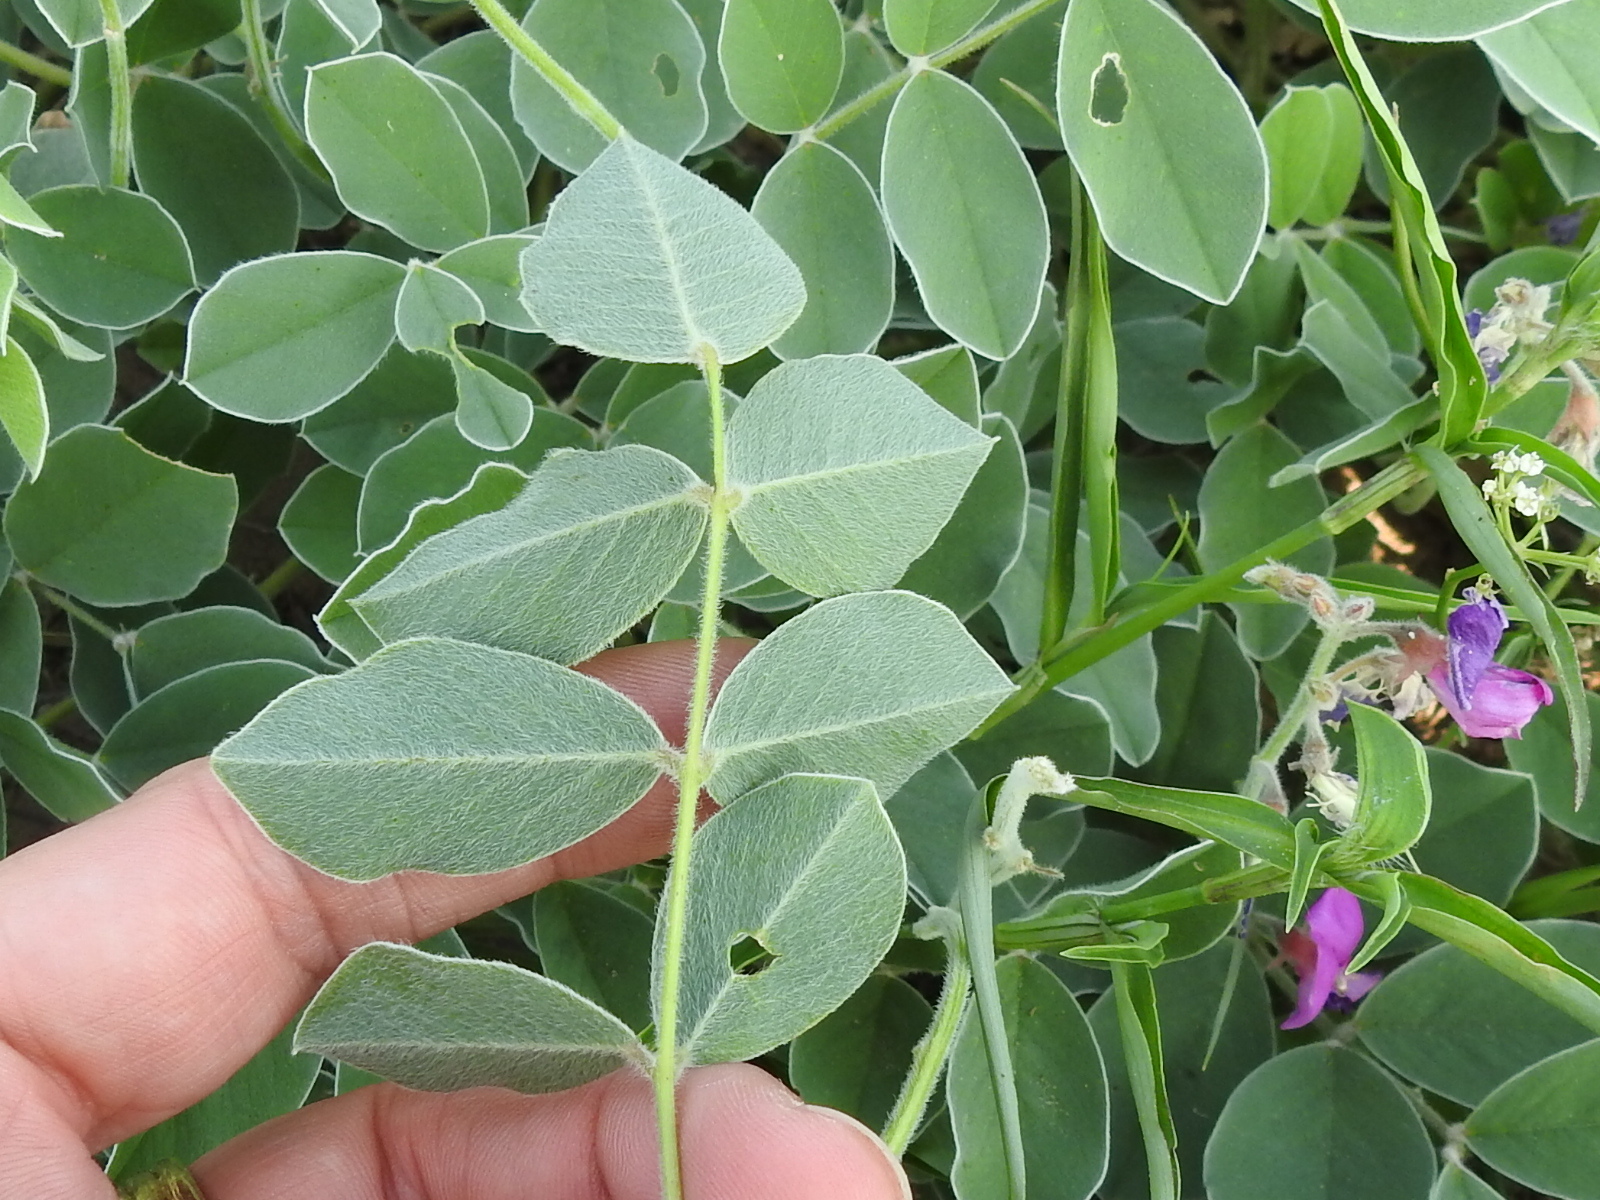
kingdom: Plantae
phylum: Tracheophyta
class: Magnoliopsida
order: Fabales
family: Fabaceae
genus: Tephrosia
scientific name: Tephrosia lindheimeri
